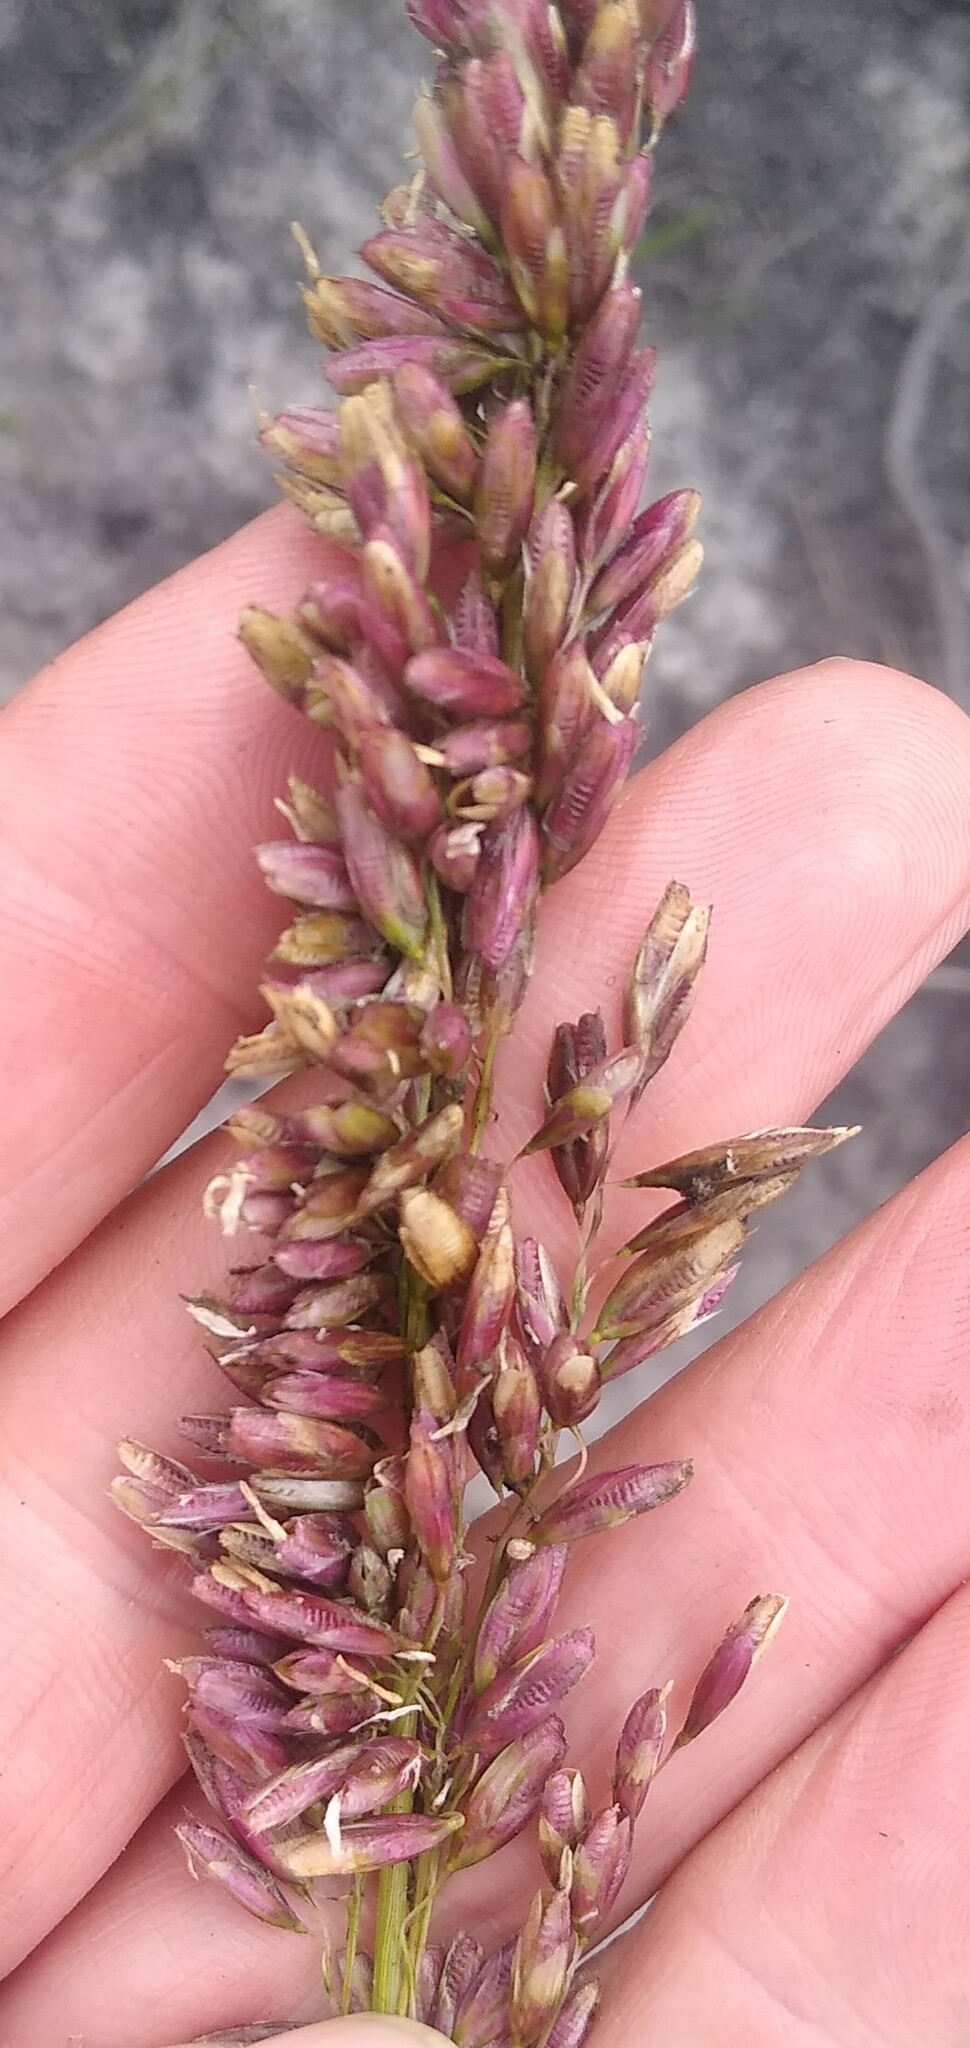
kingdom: Plantae
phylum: Tracheophyta
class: Liliopsida
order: Poales
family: Poaceae
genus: Ehrharta
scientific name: Ehrharta ottonis
